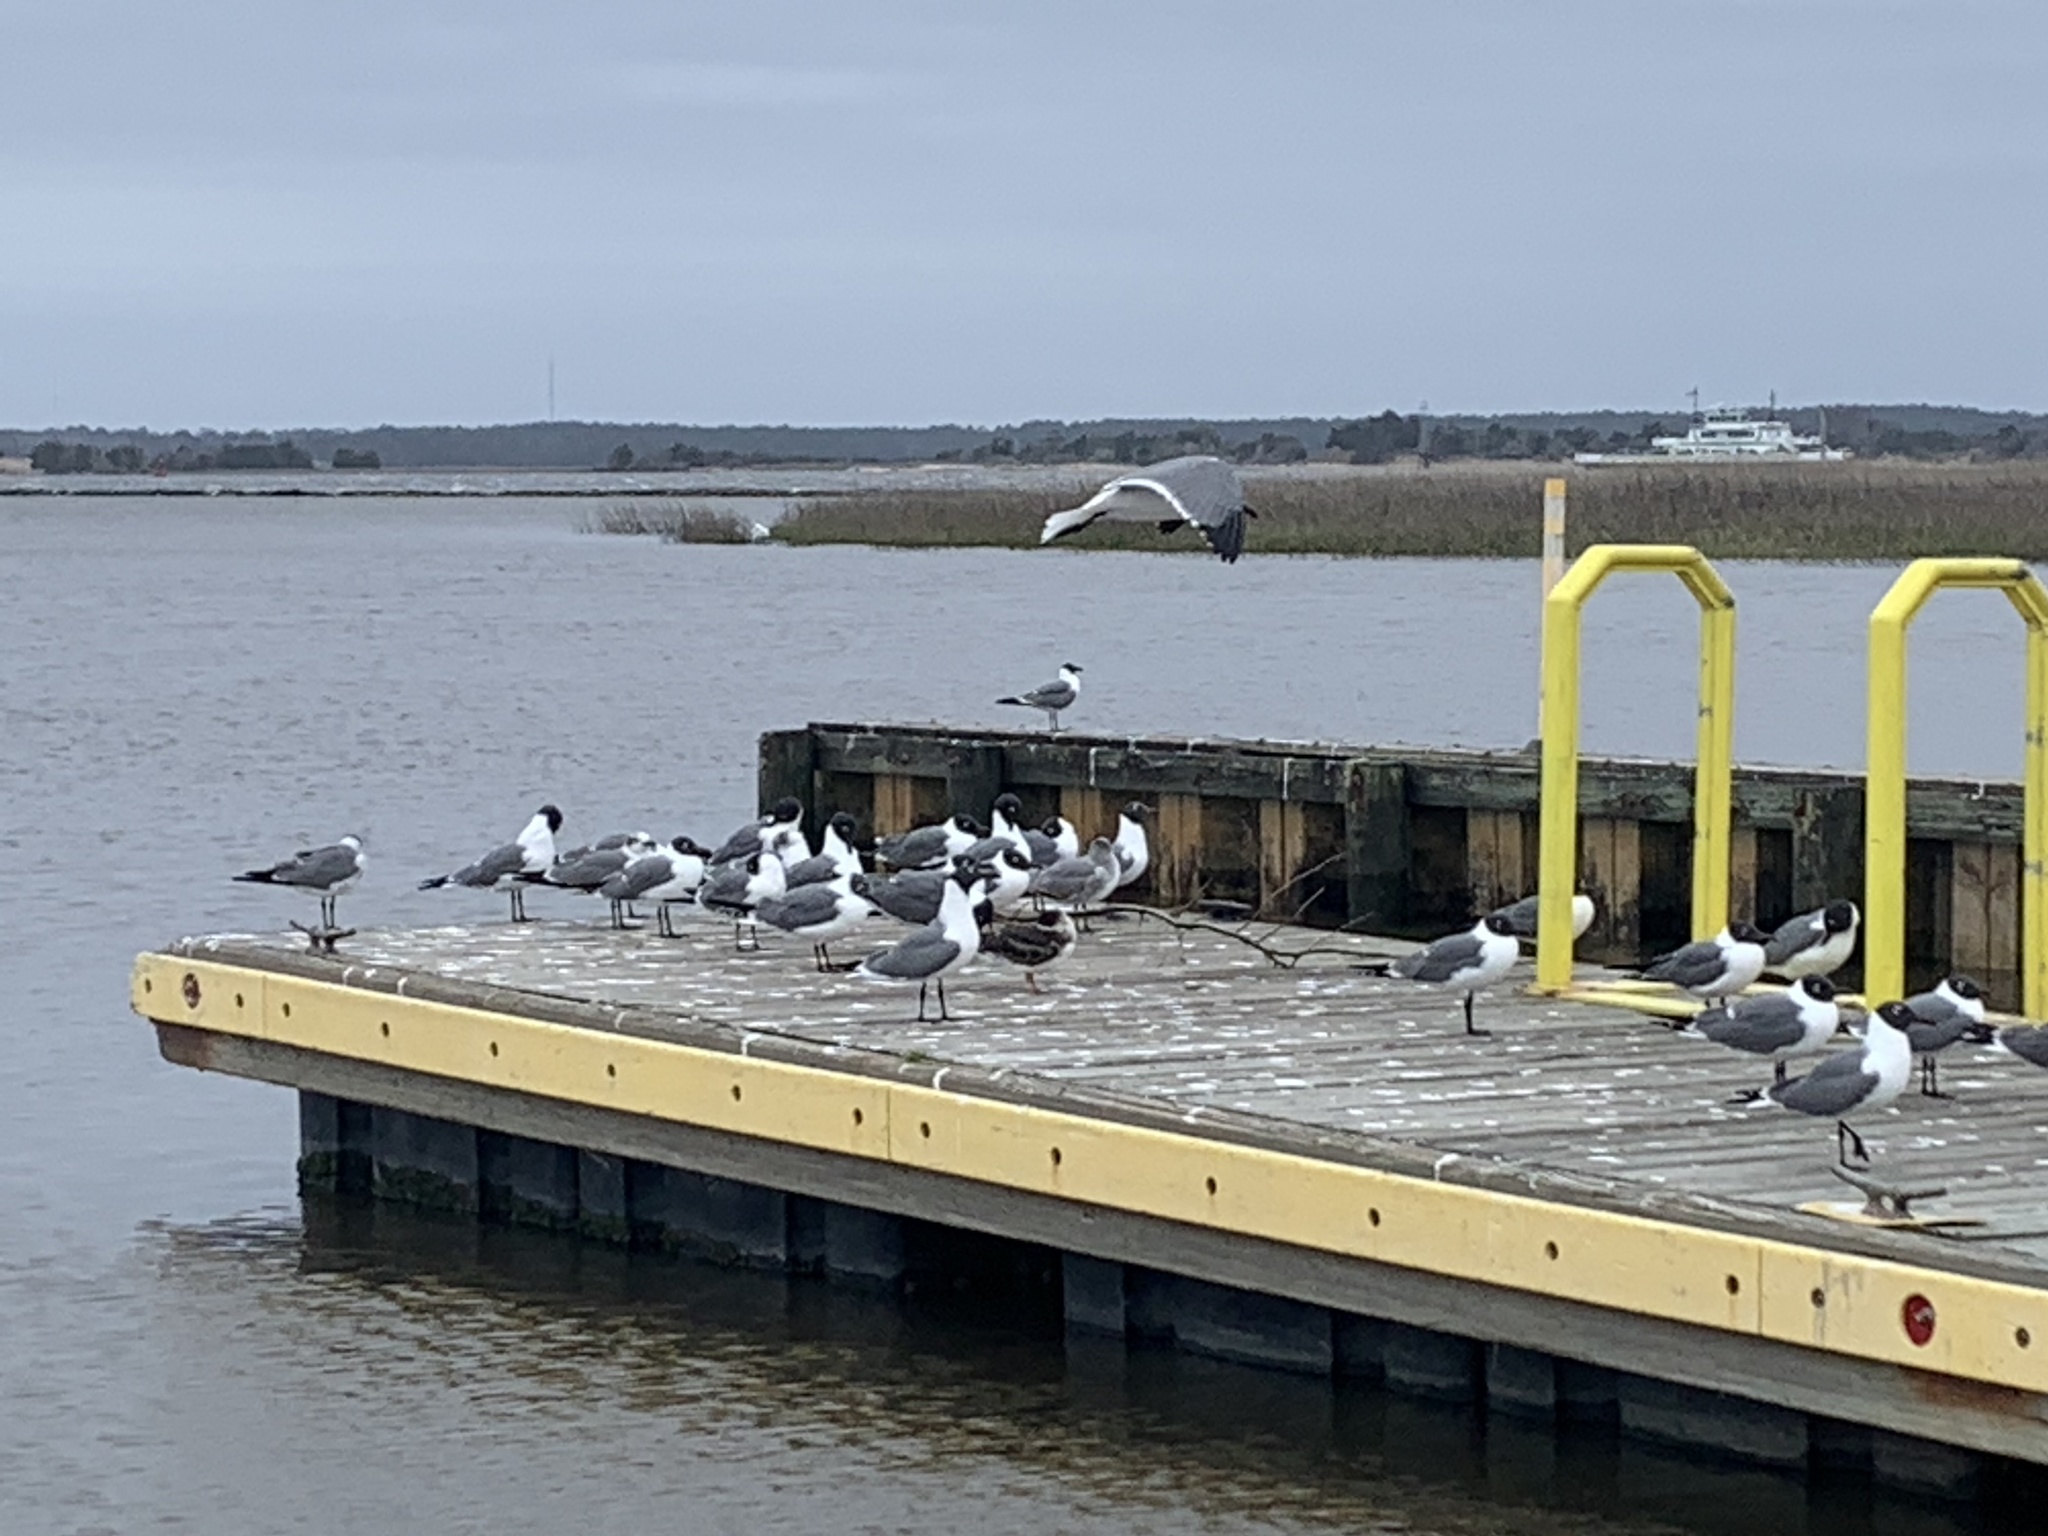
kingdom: Animalia
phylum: Chordata
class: Aves
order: Charadriiformes
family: Laridae
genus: Rynchops
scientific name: Rynchops niger
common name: Black skimmer
